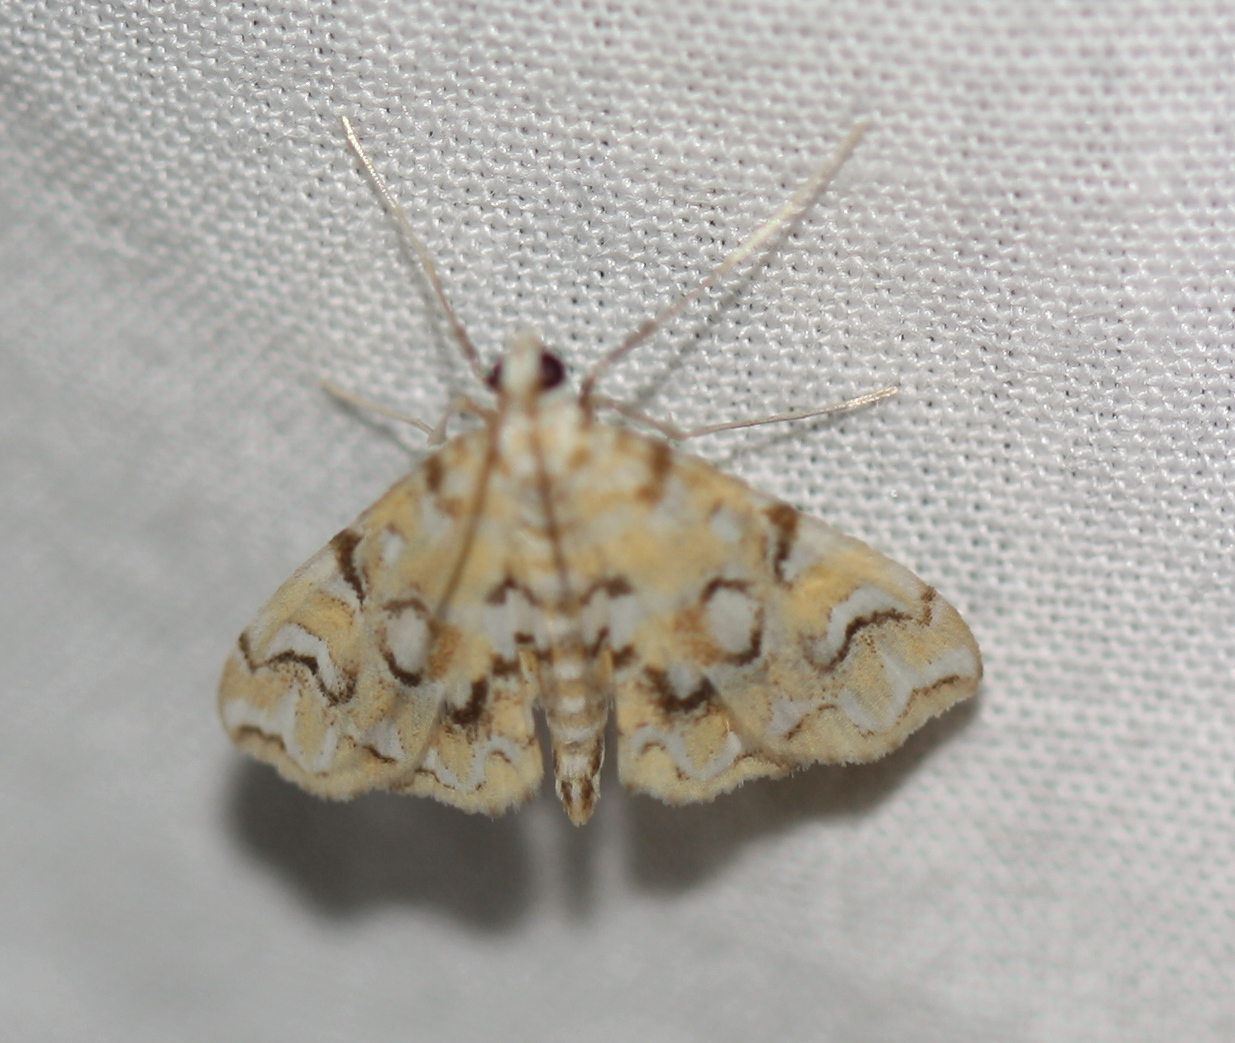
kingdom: Animalia
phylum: Arthropoda
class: Insecta
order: Lepidoptera
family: Crambidae
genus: Elophila
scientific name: Elophila icciusalis
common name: Pondside pyralid moth
